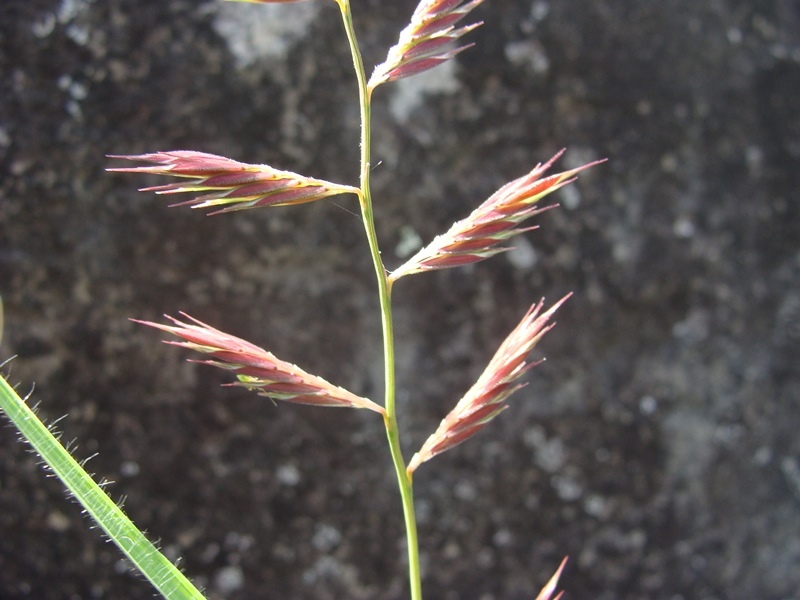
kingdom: Plantae
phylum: Tracheophyta
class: Liliopsida
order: Poales
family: Poaceae
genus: Bouteloua
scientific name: Bouteloua repens
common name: Slender grama
